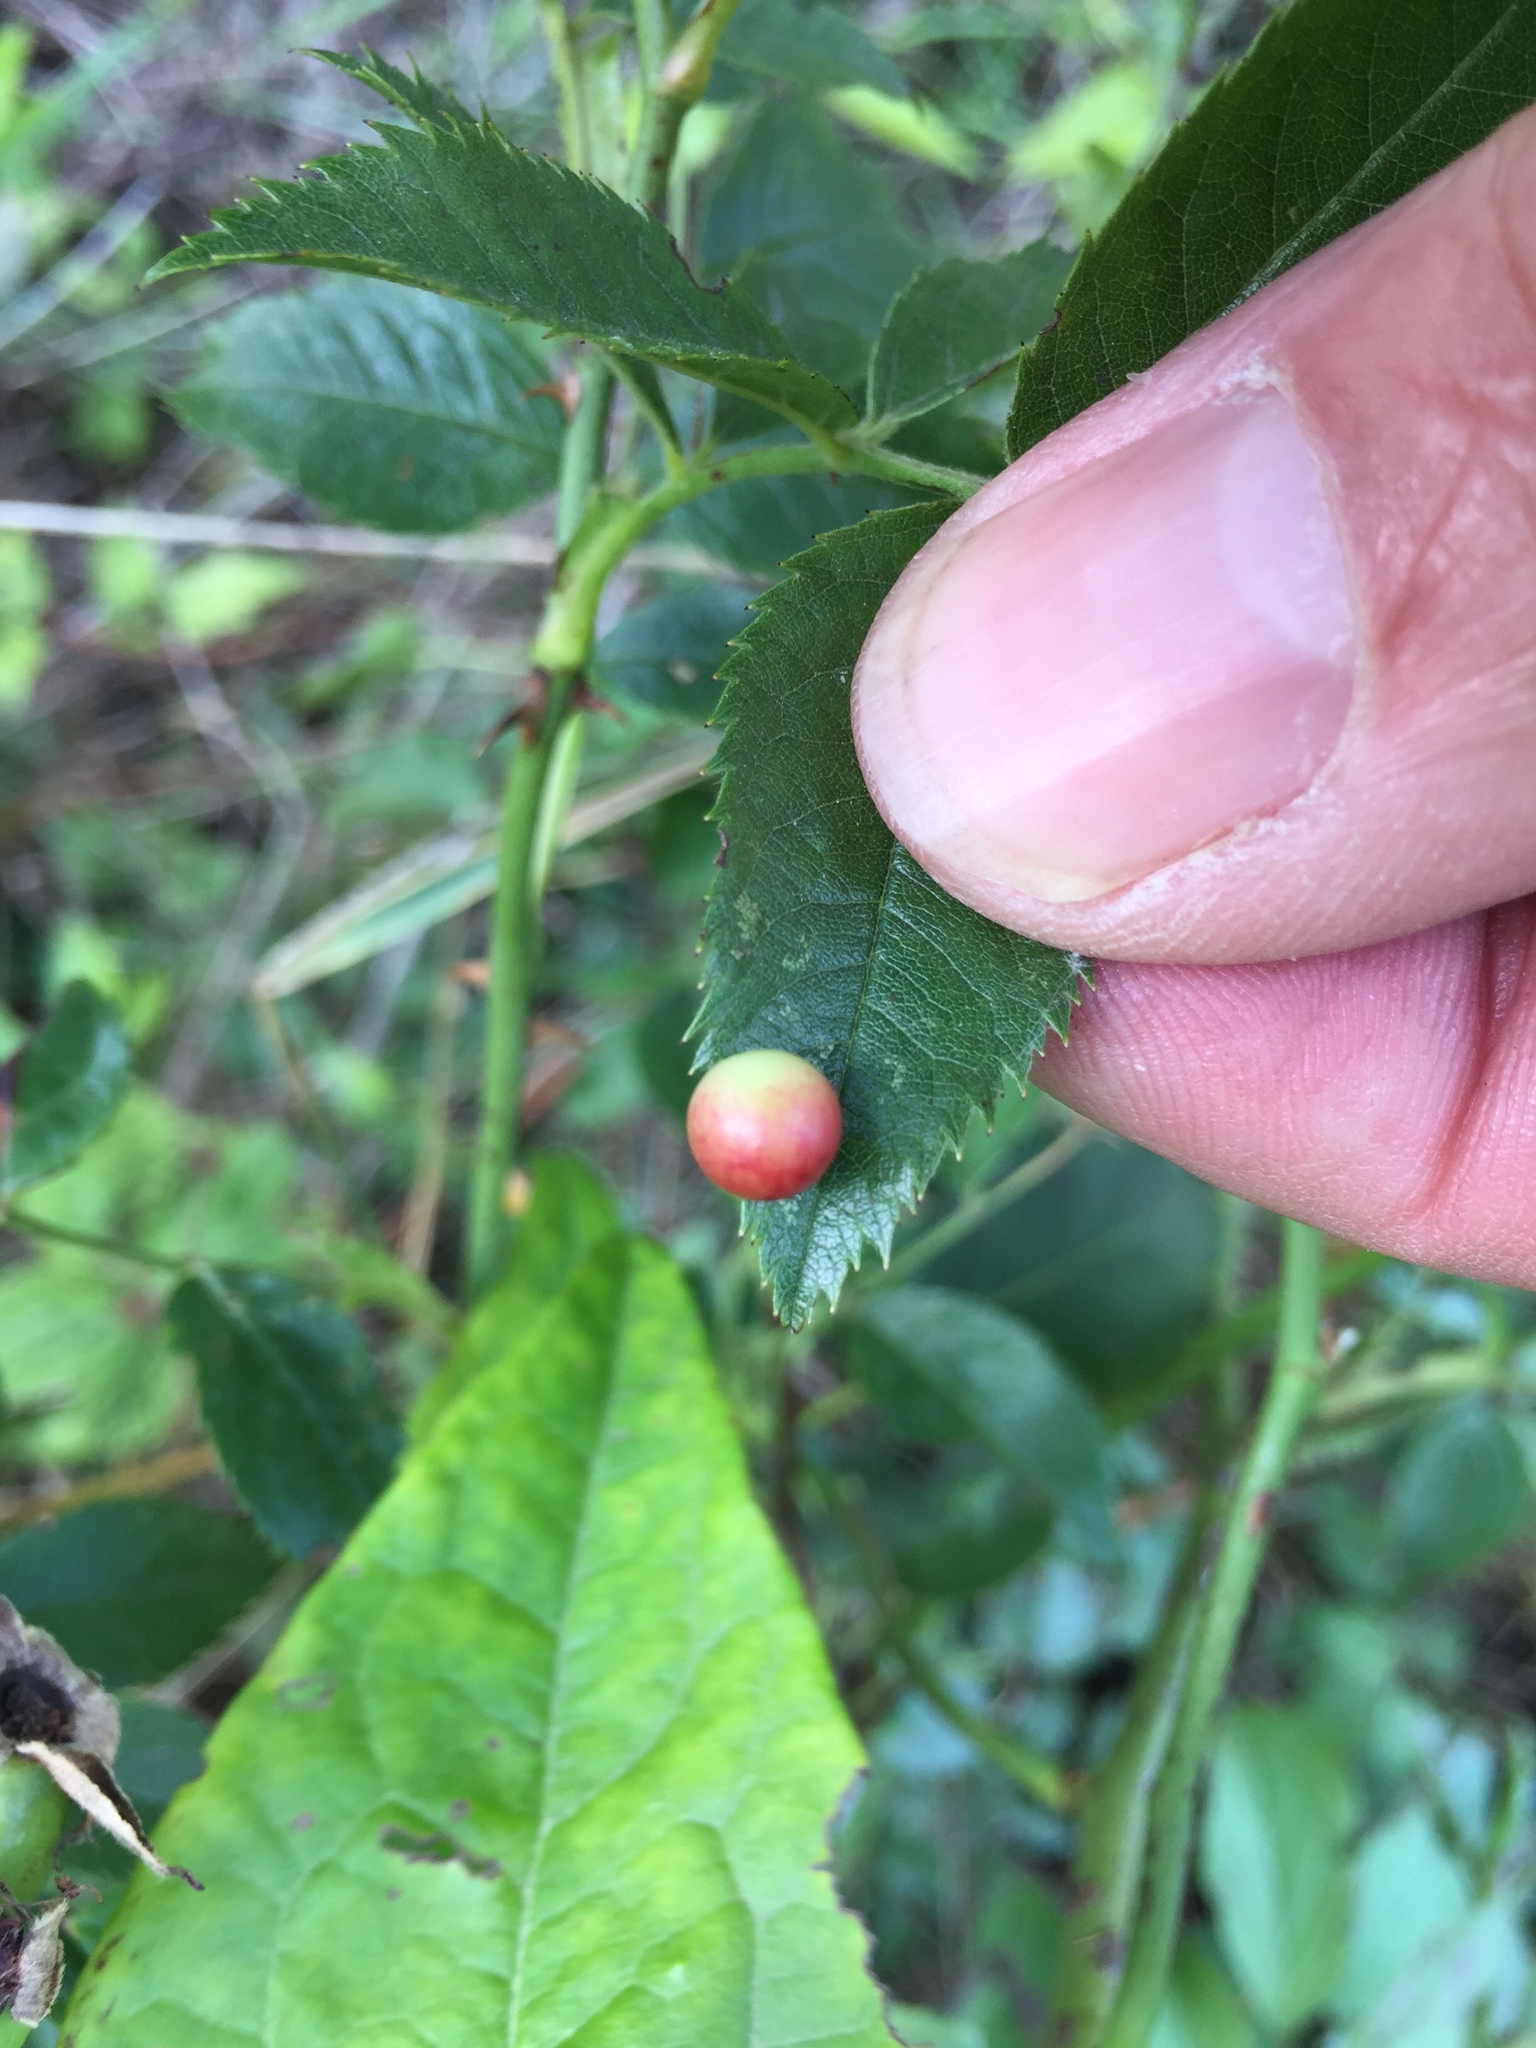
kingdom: Animalia
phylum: Arthropoda
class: Insecta
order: Hymenoptera
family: Cynipidae
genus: Diplolepis
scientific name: Diplolepis eglanteriae
